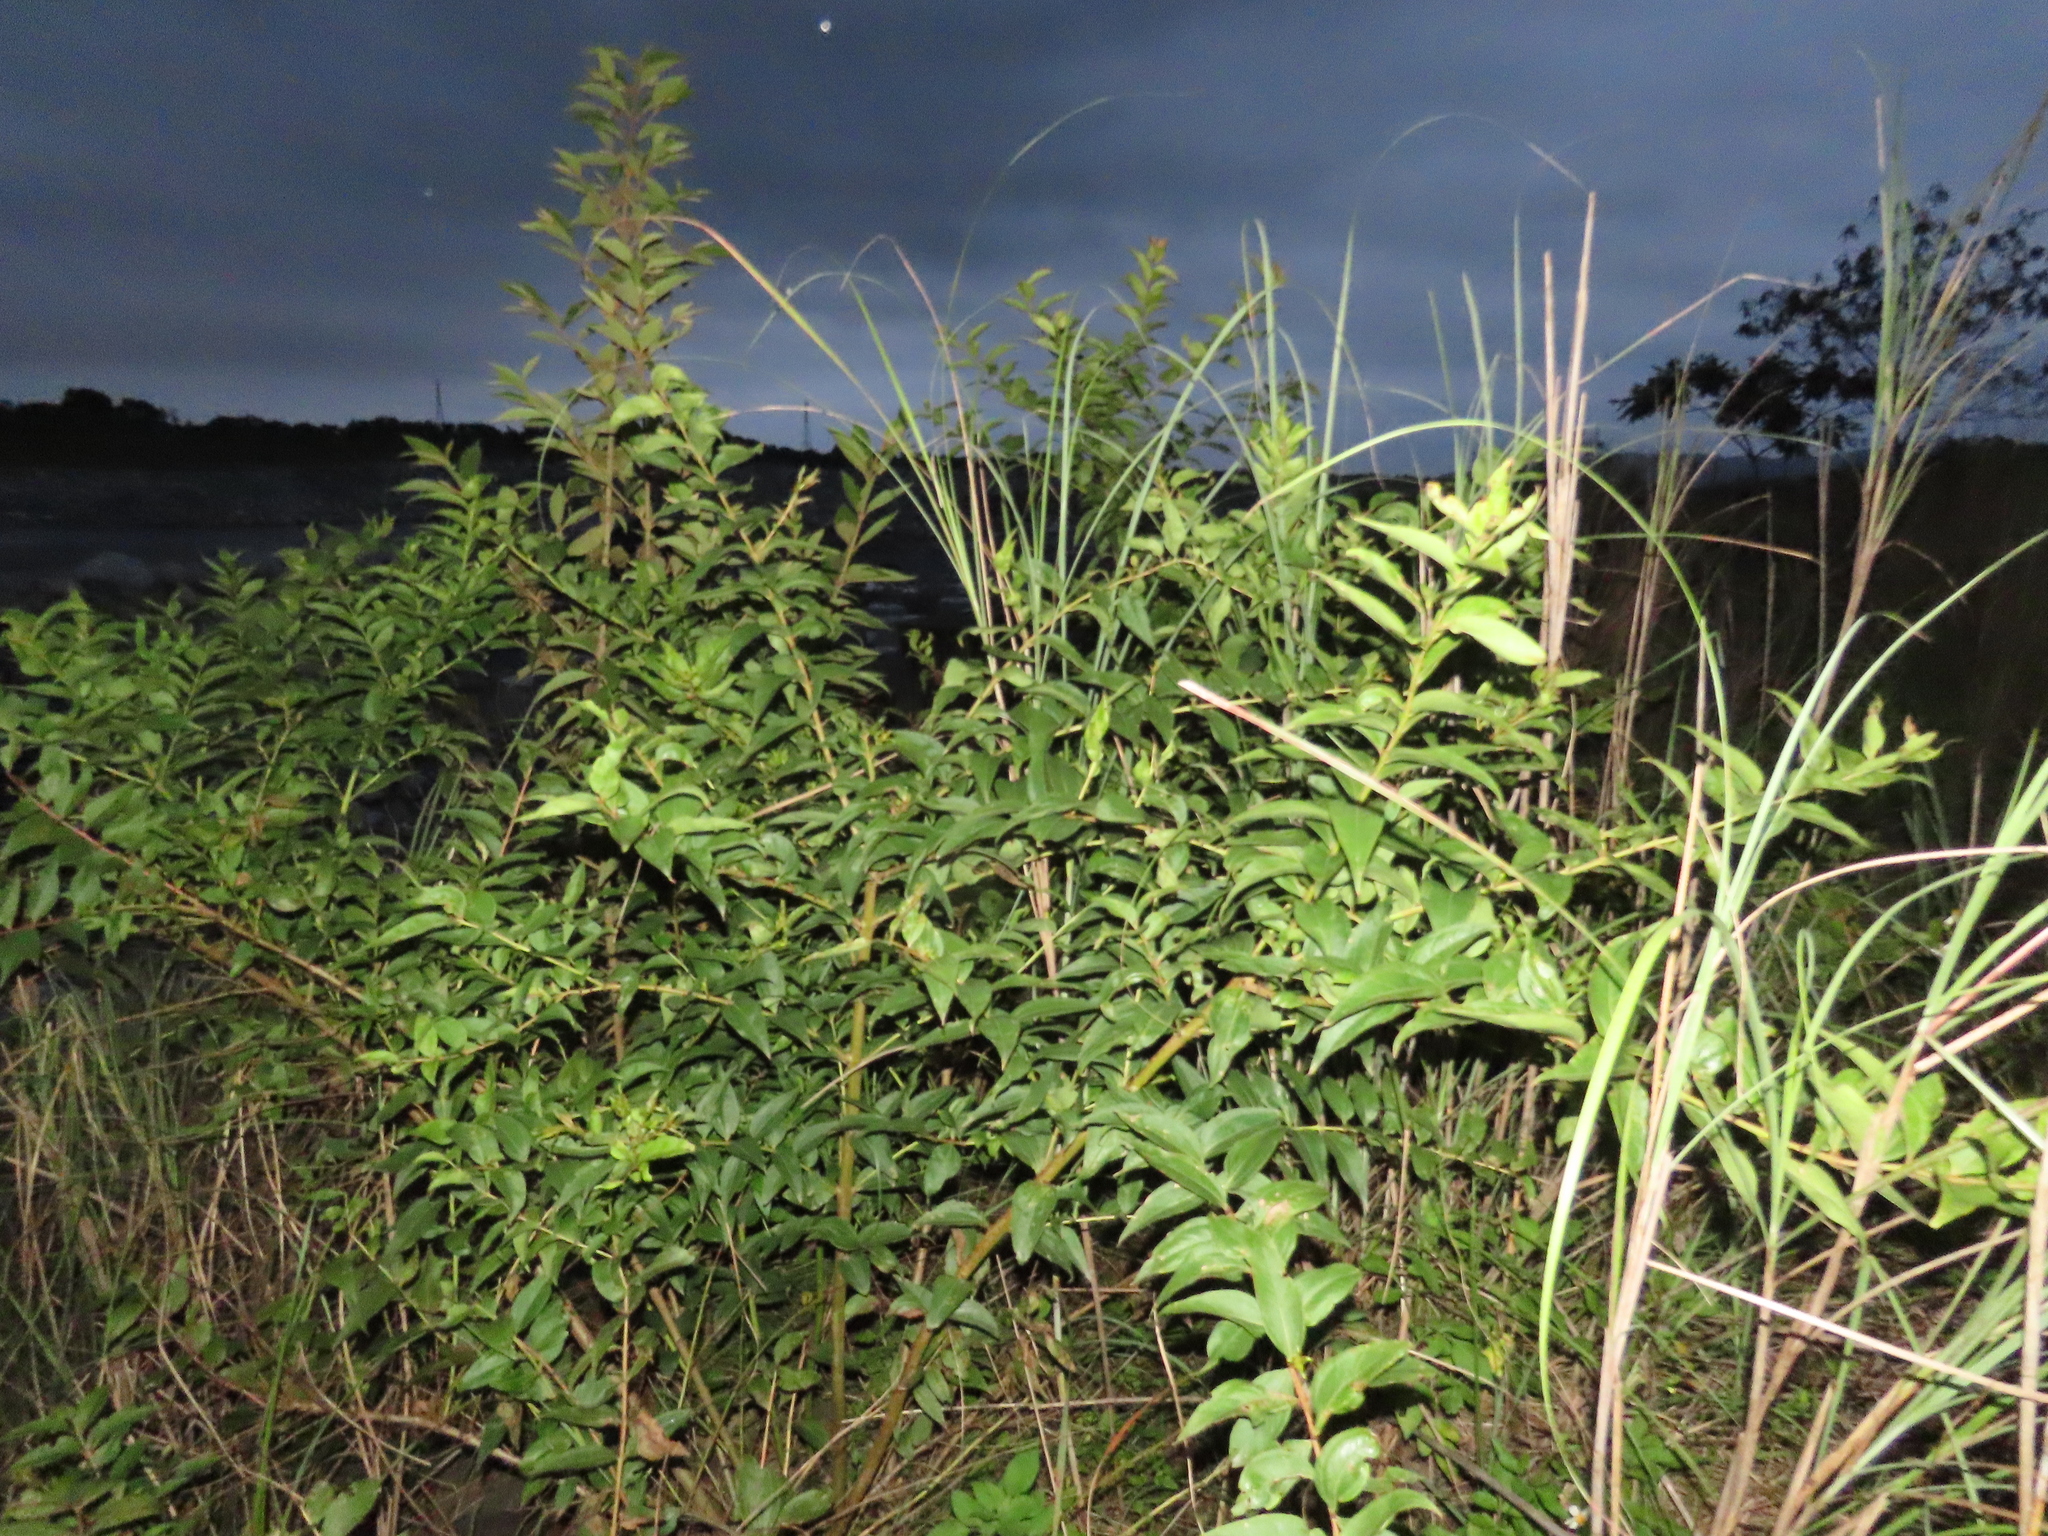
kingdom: Plantae
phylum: Tracheophyta
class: Magnoliopsida
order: Cucurbitales
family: Coriariaceae
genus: Coriaria
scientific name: Coriaria japonica
